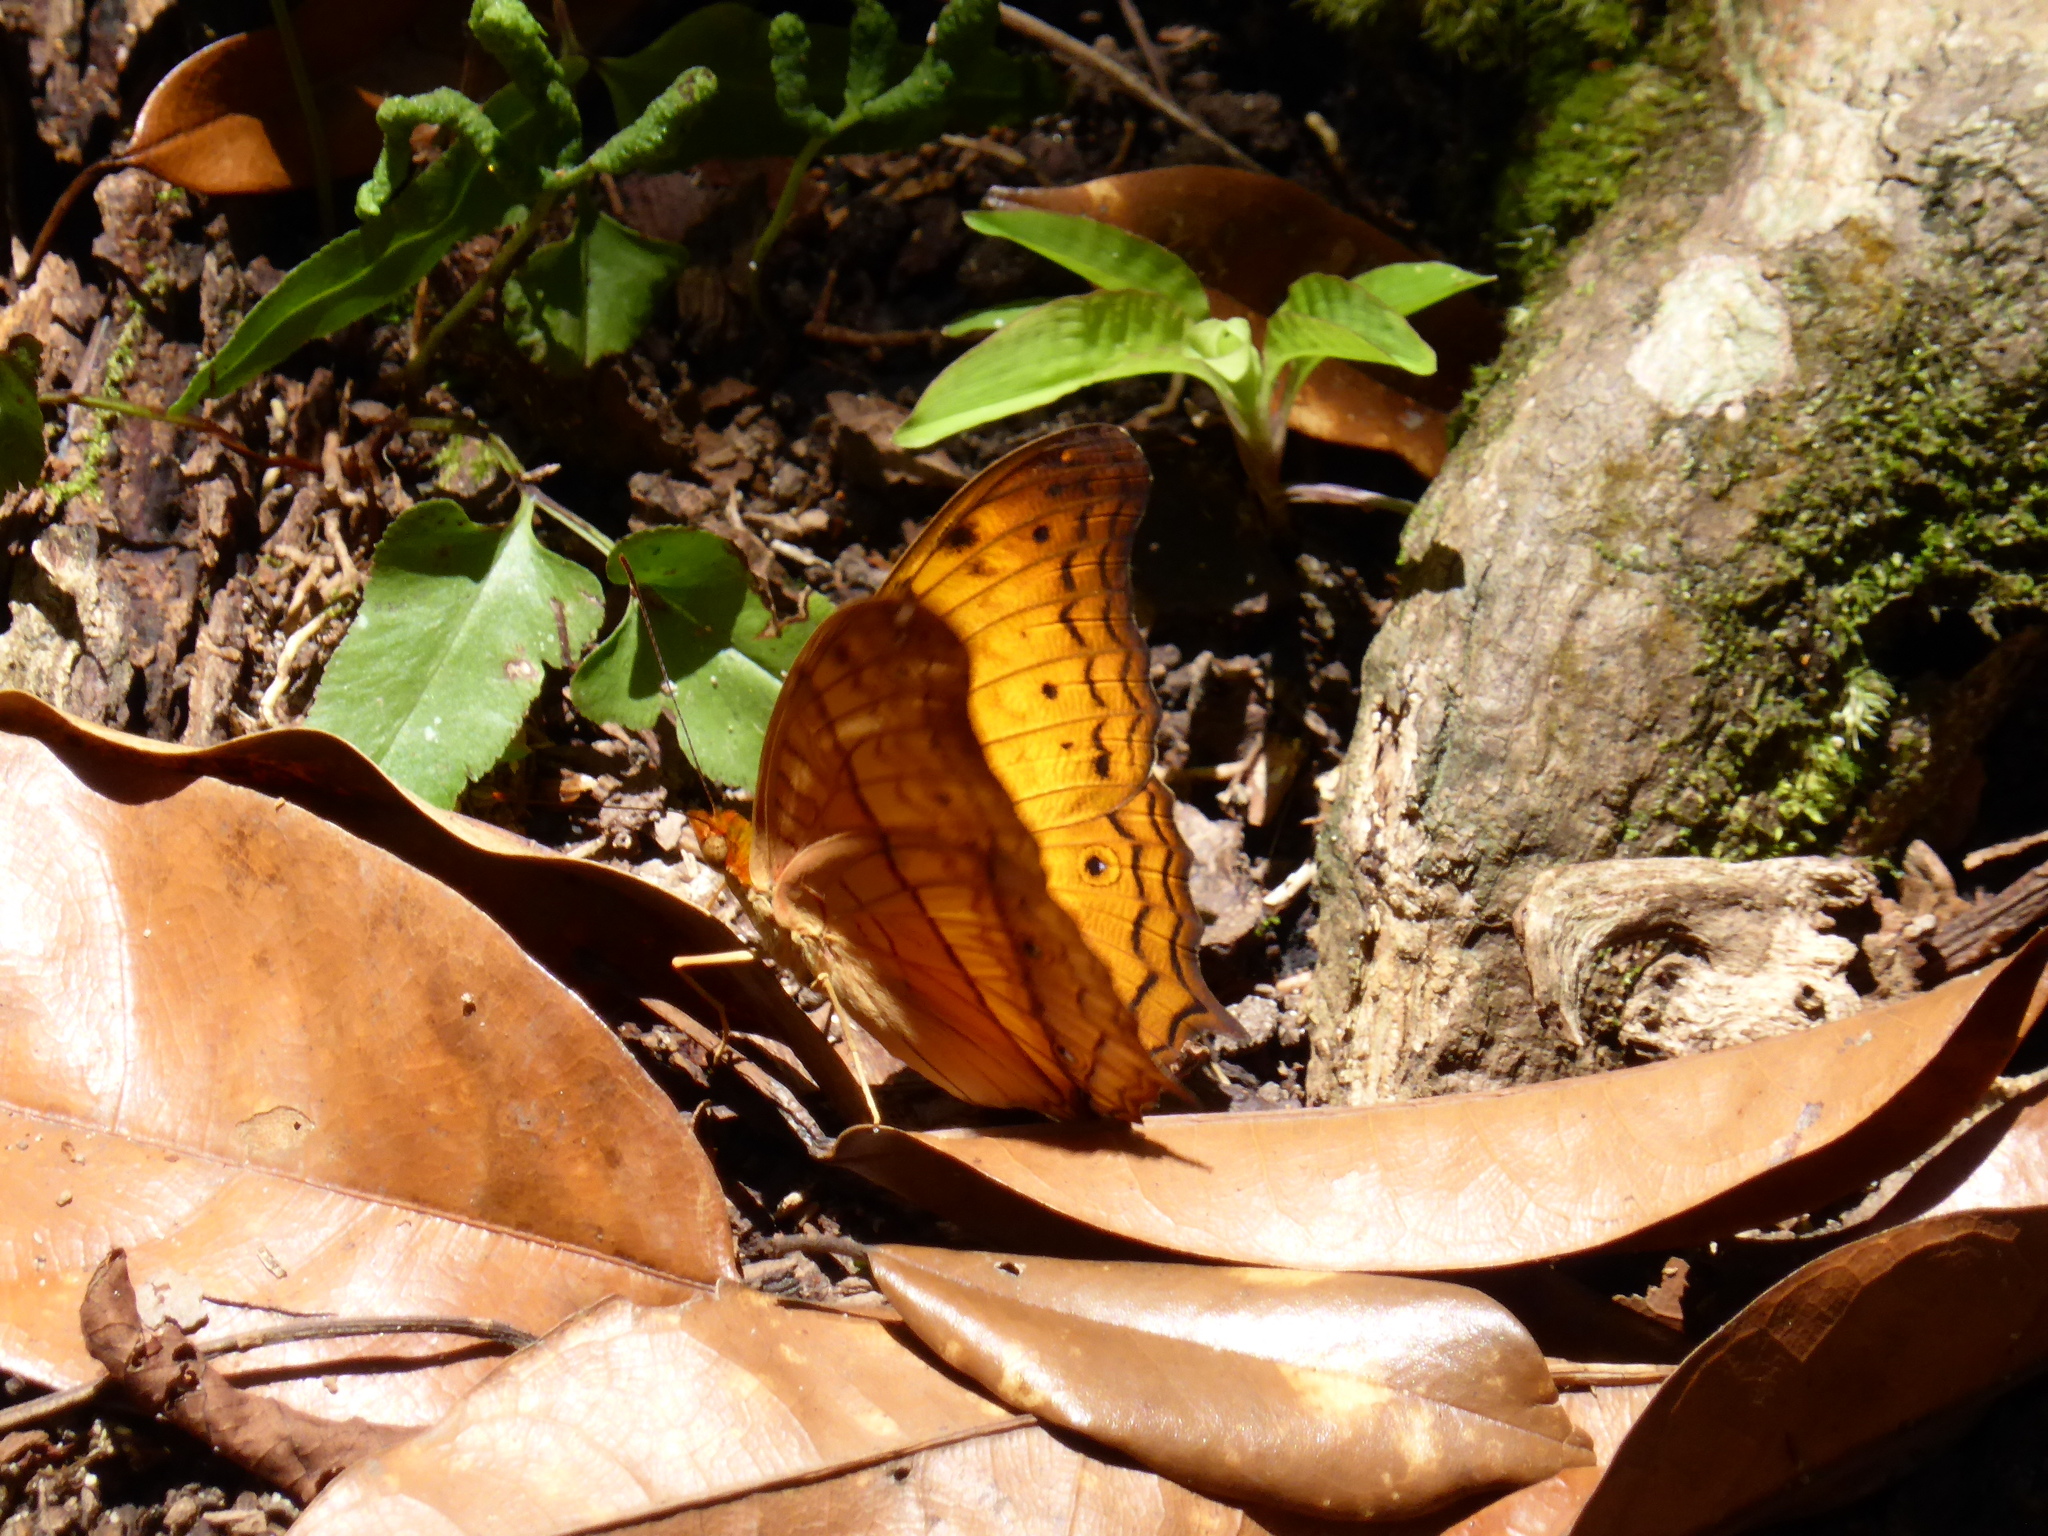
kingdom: Animalia
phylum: Arthropoda
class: Insecta
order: Lepidoptera
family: Nymphalidae
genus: Vindula
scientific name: Vindula deione
